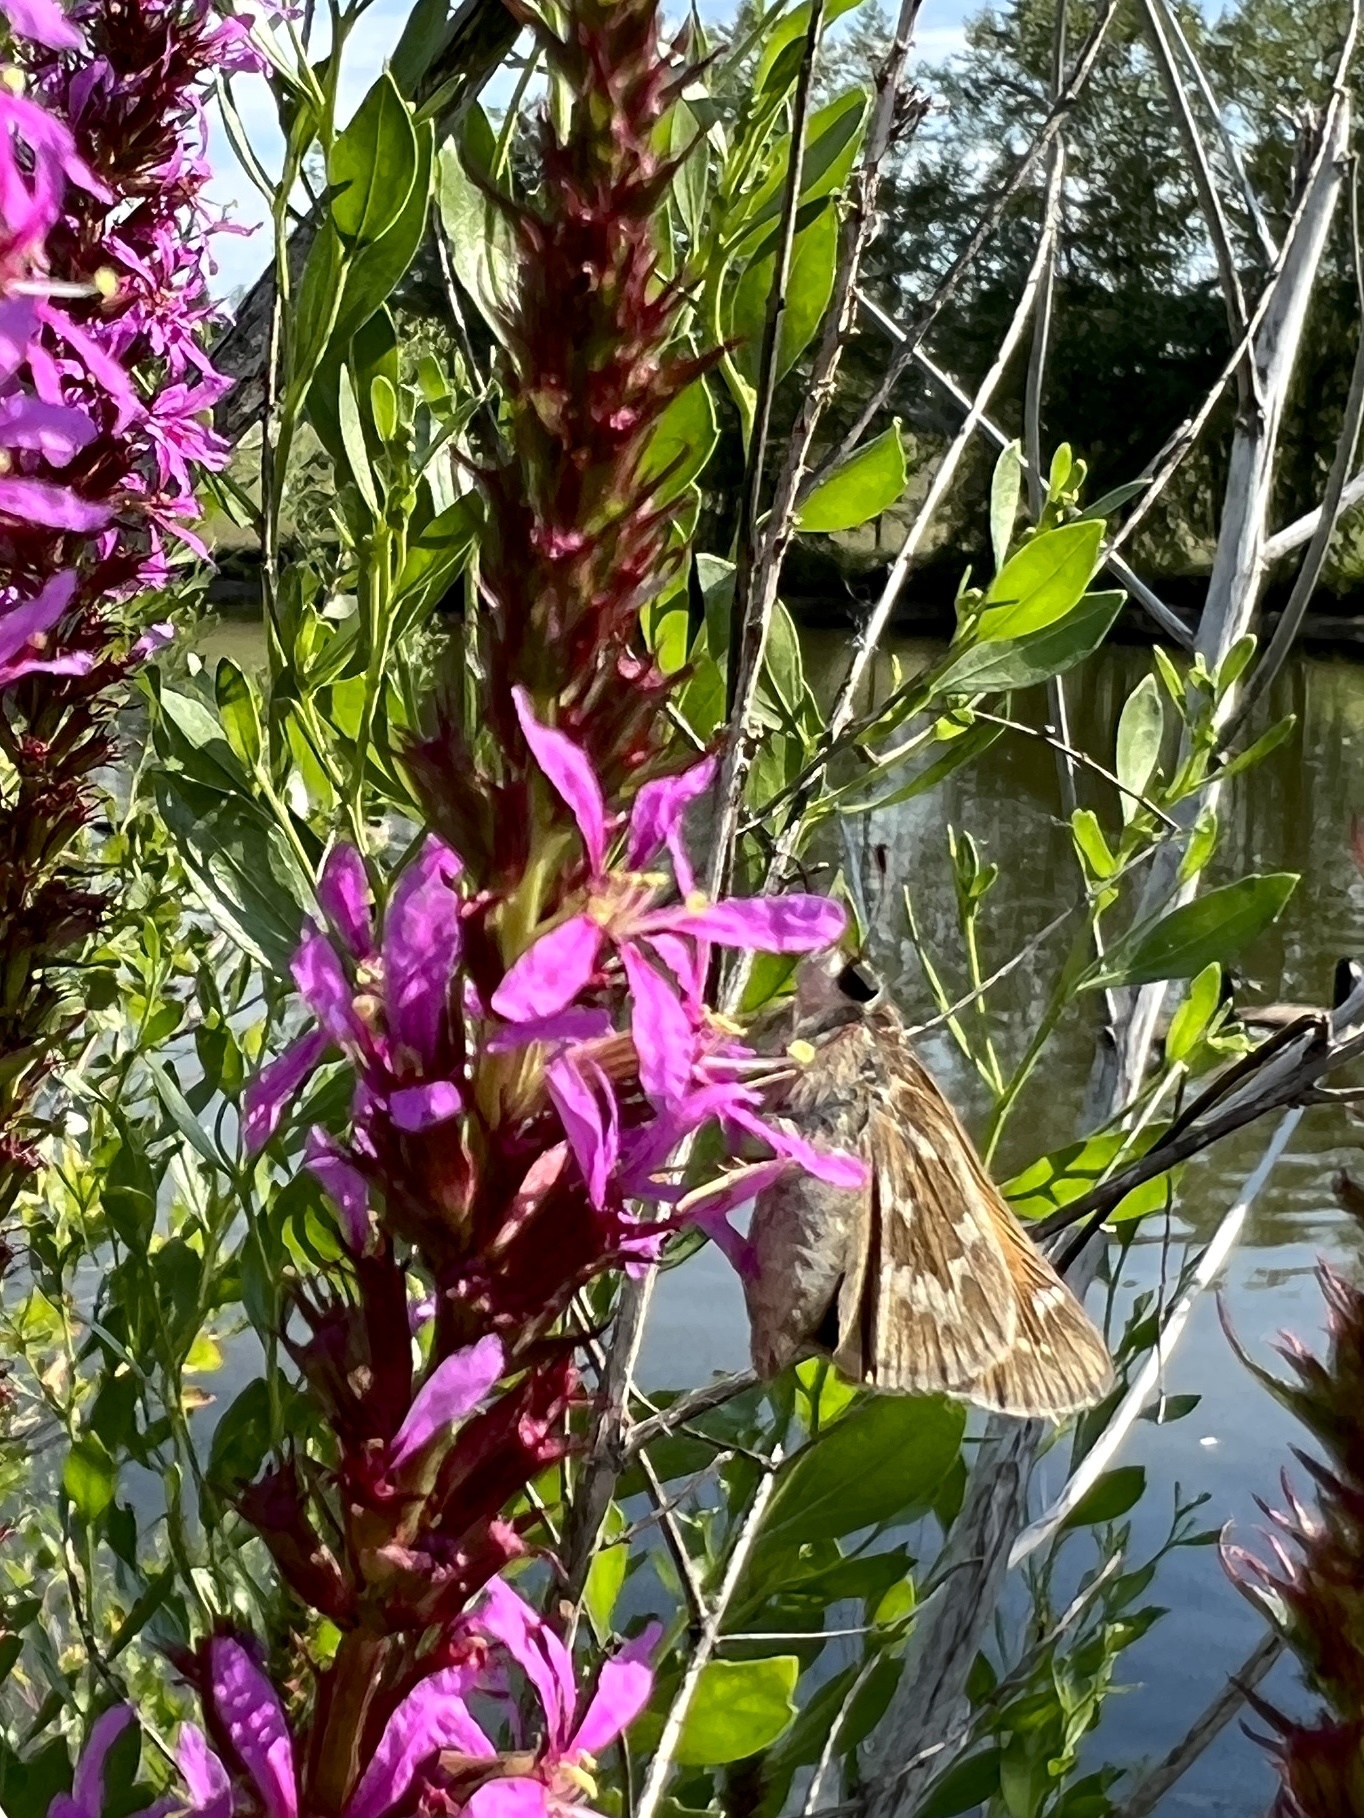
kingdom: Animalia
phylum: Arthropoda
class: Insecta
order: Lepidoptera
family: Hesperiidae
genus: Atalopedes
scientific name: Atalopedes
